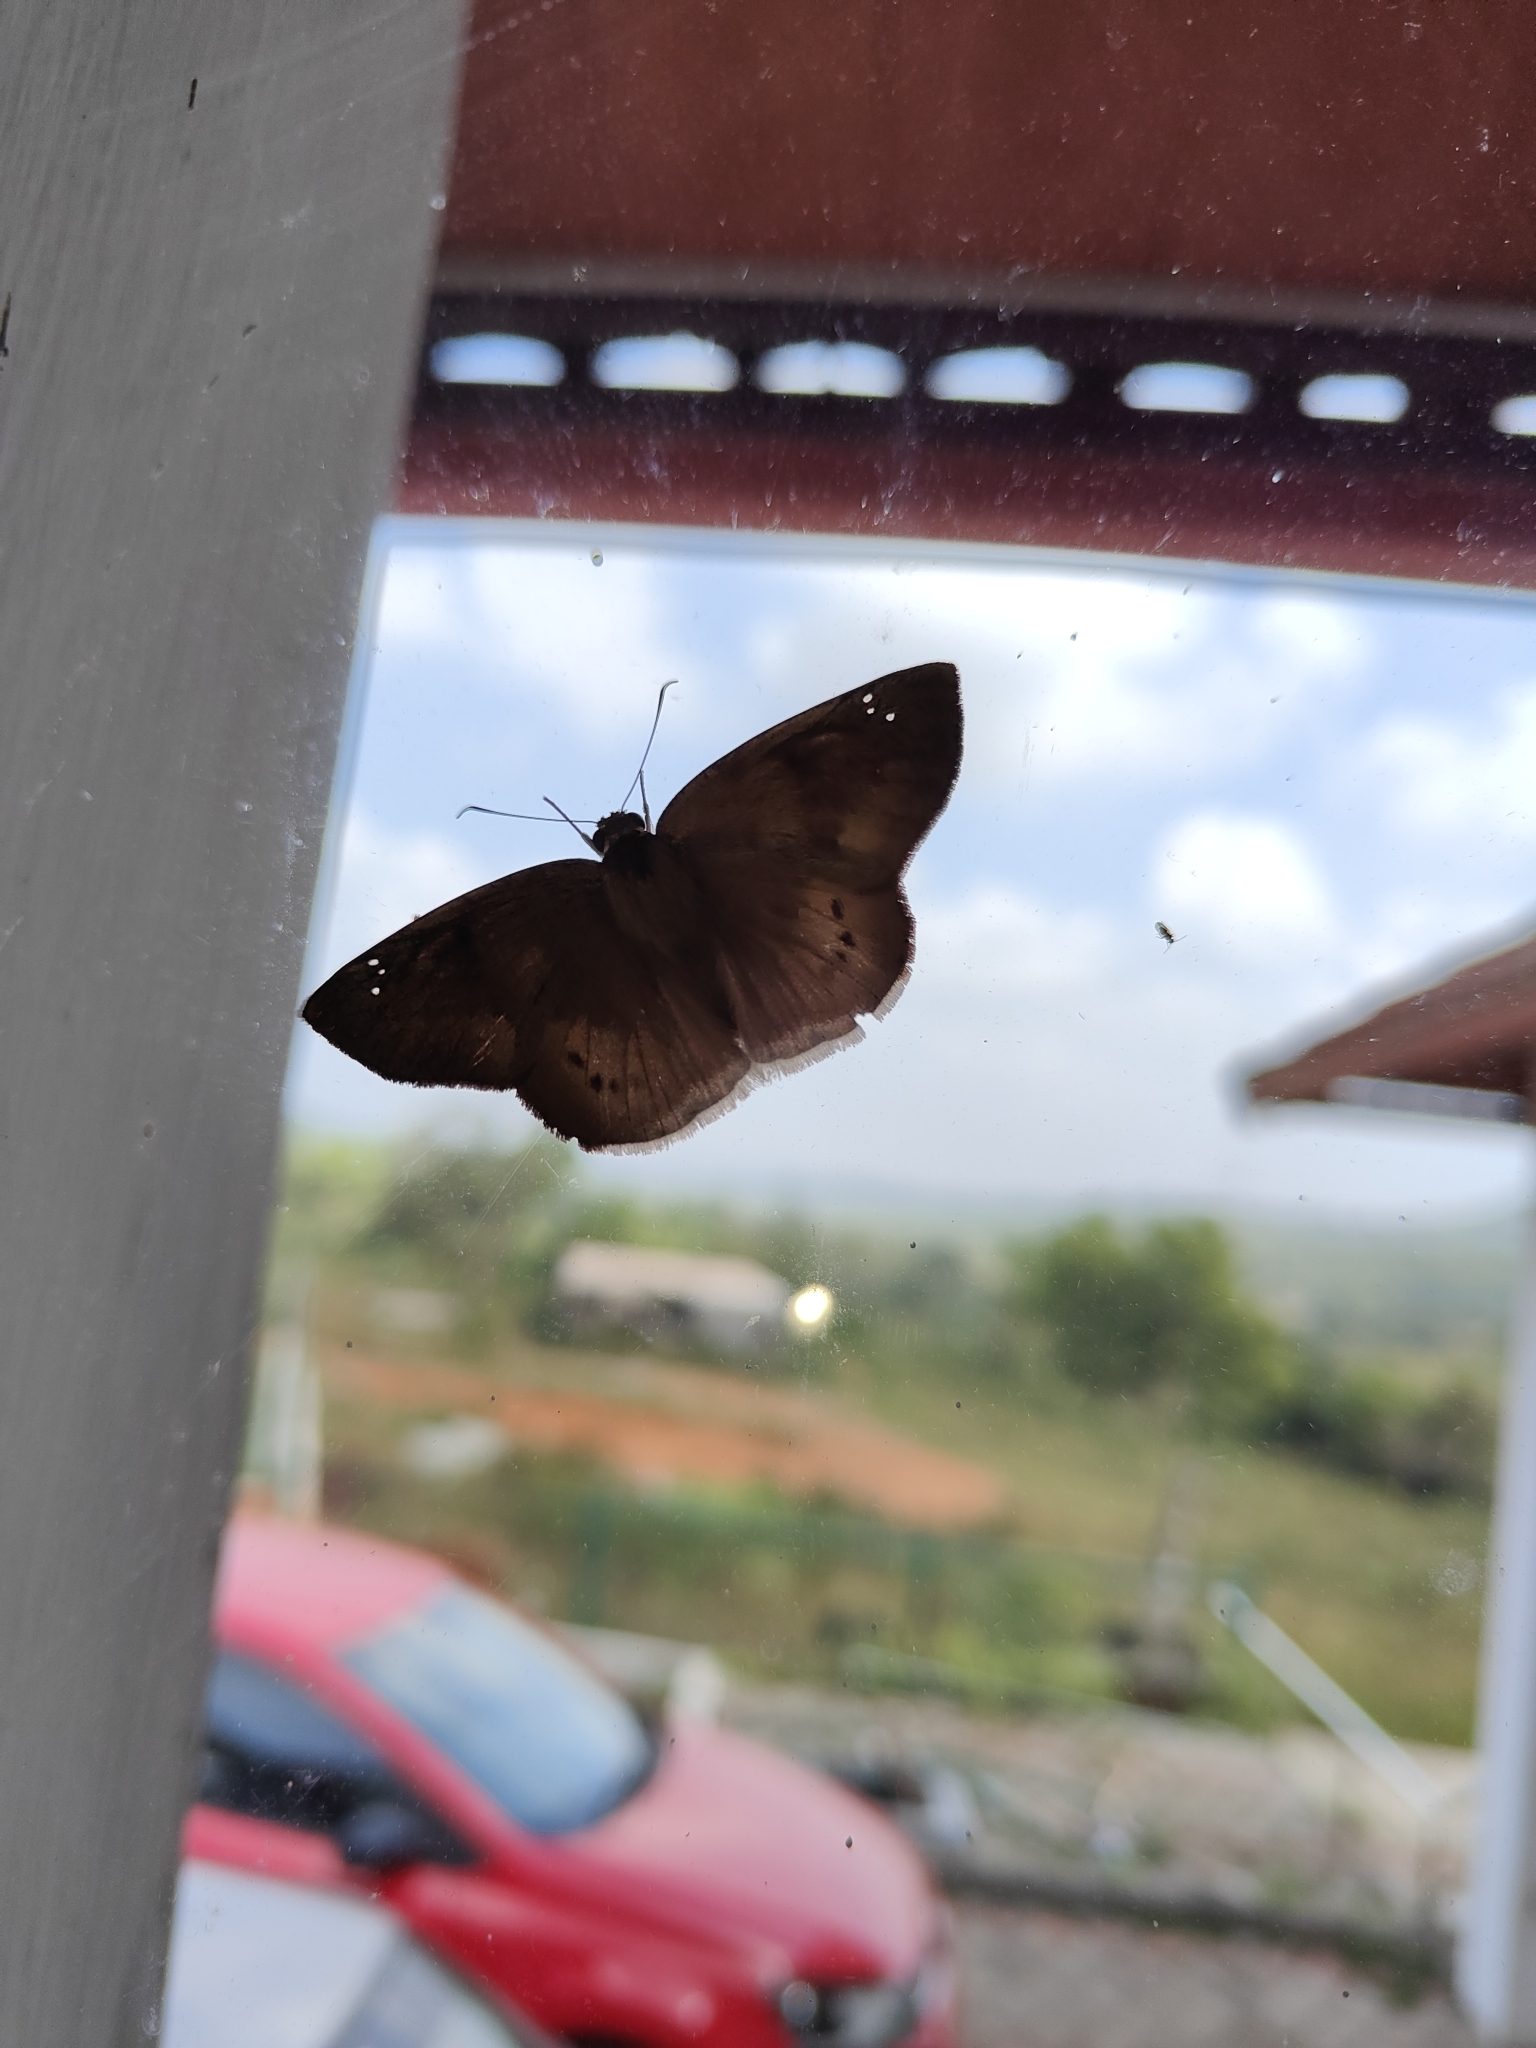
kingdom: Animalia
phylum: Arthropoda
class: Insecta
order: Lepidoptera
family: Hesperiidae
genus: Tagiades
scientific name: Tagiades gana
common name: Suffused snow flat
